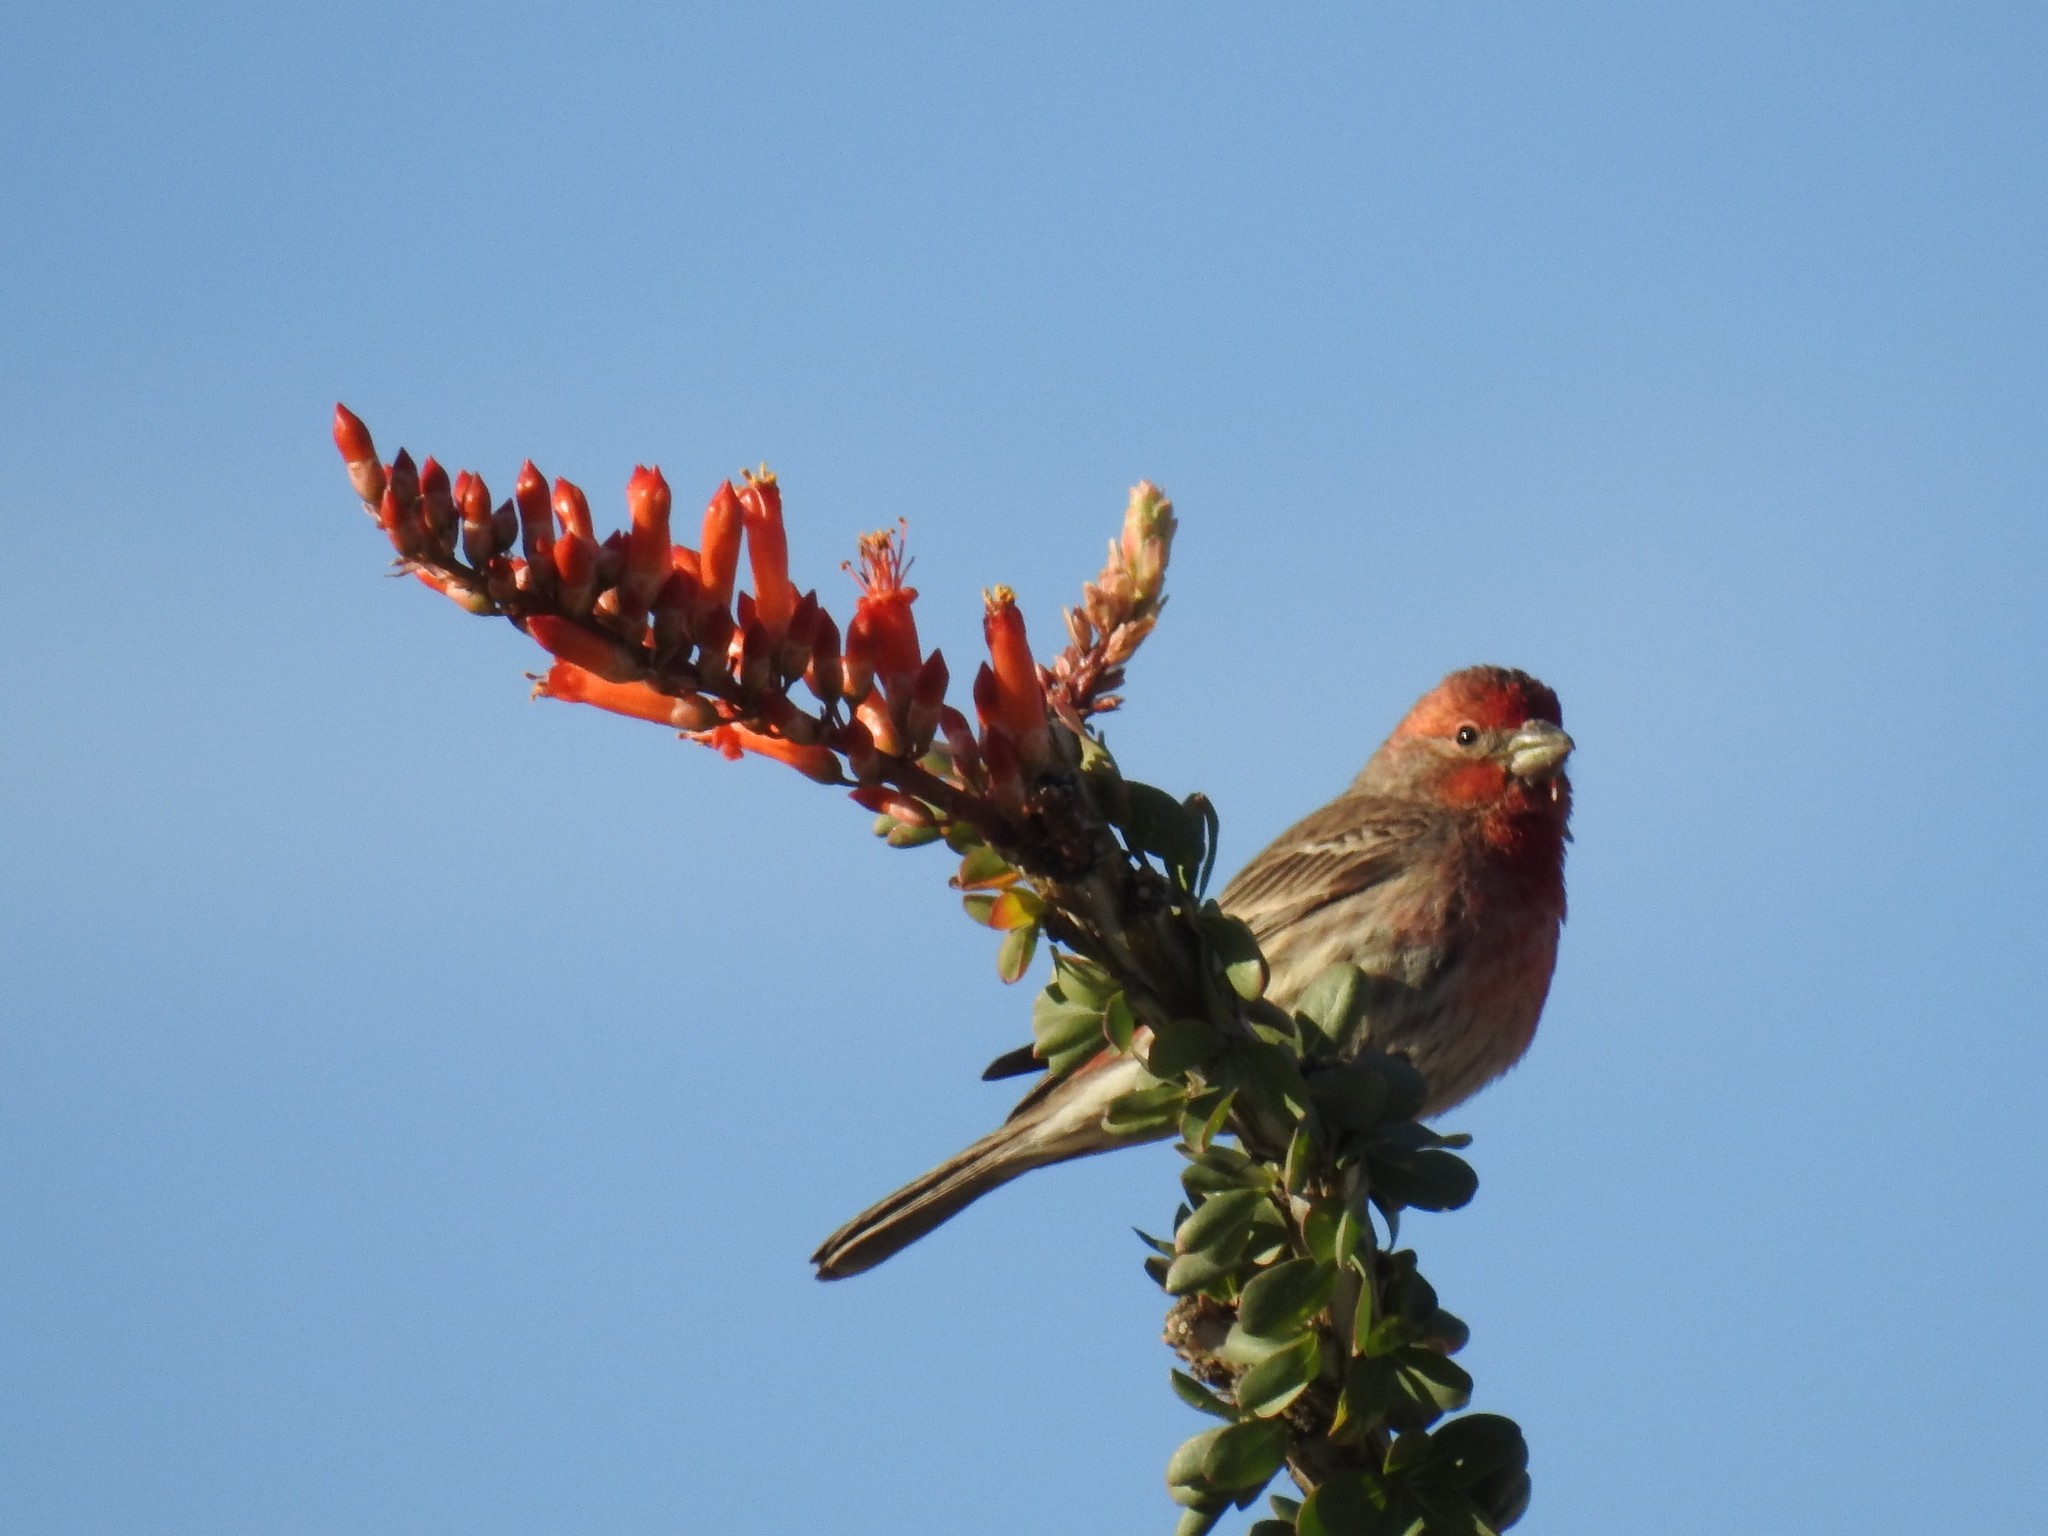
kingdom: Animalia
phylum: Chordata
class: Aves
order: Passeriformes
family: Fringillidae
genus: Haemorhous
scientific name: Haemorhous mexicanus
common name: House finch
